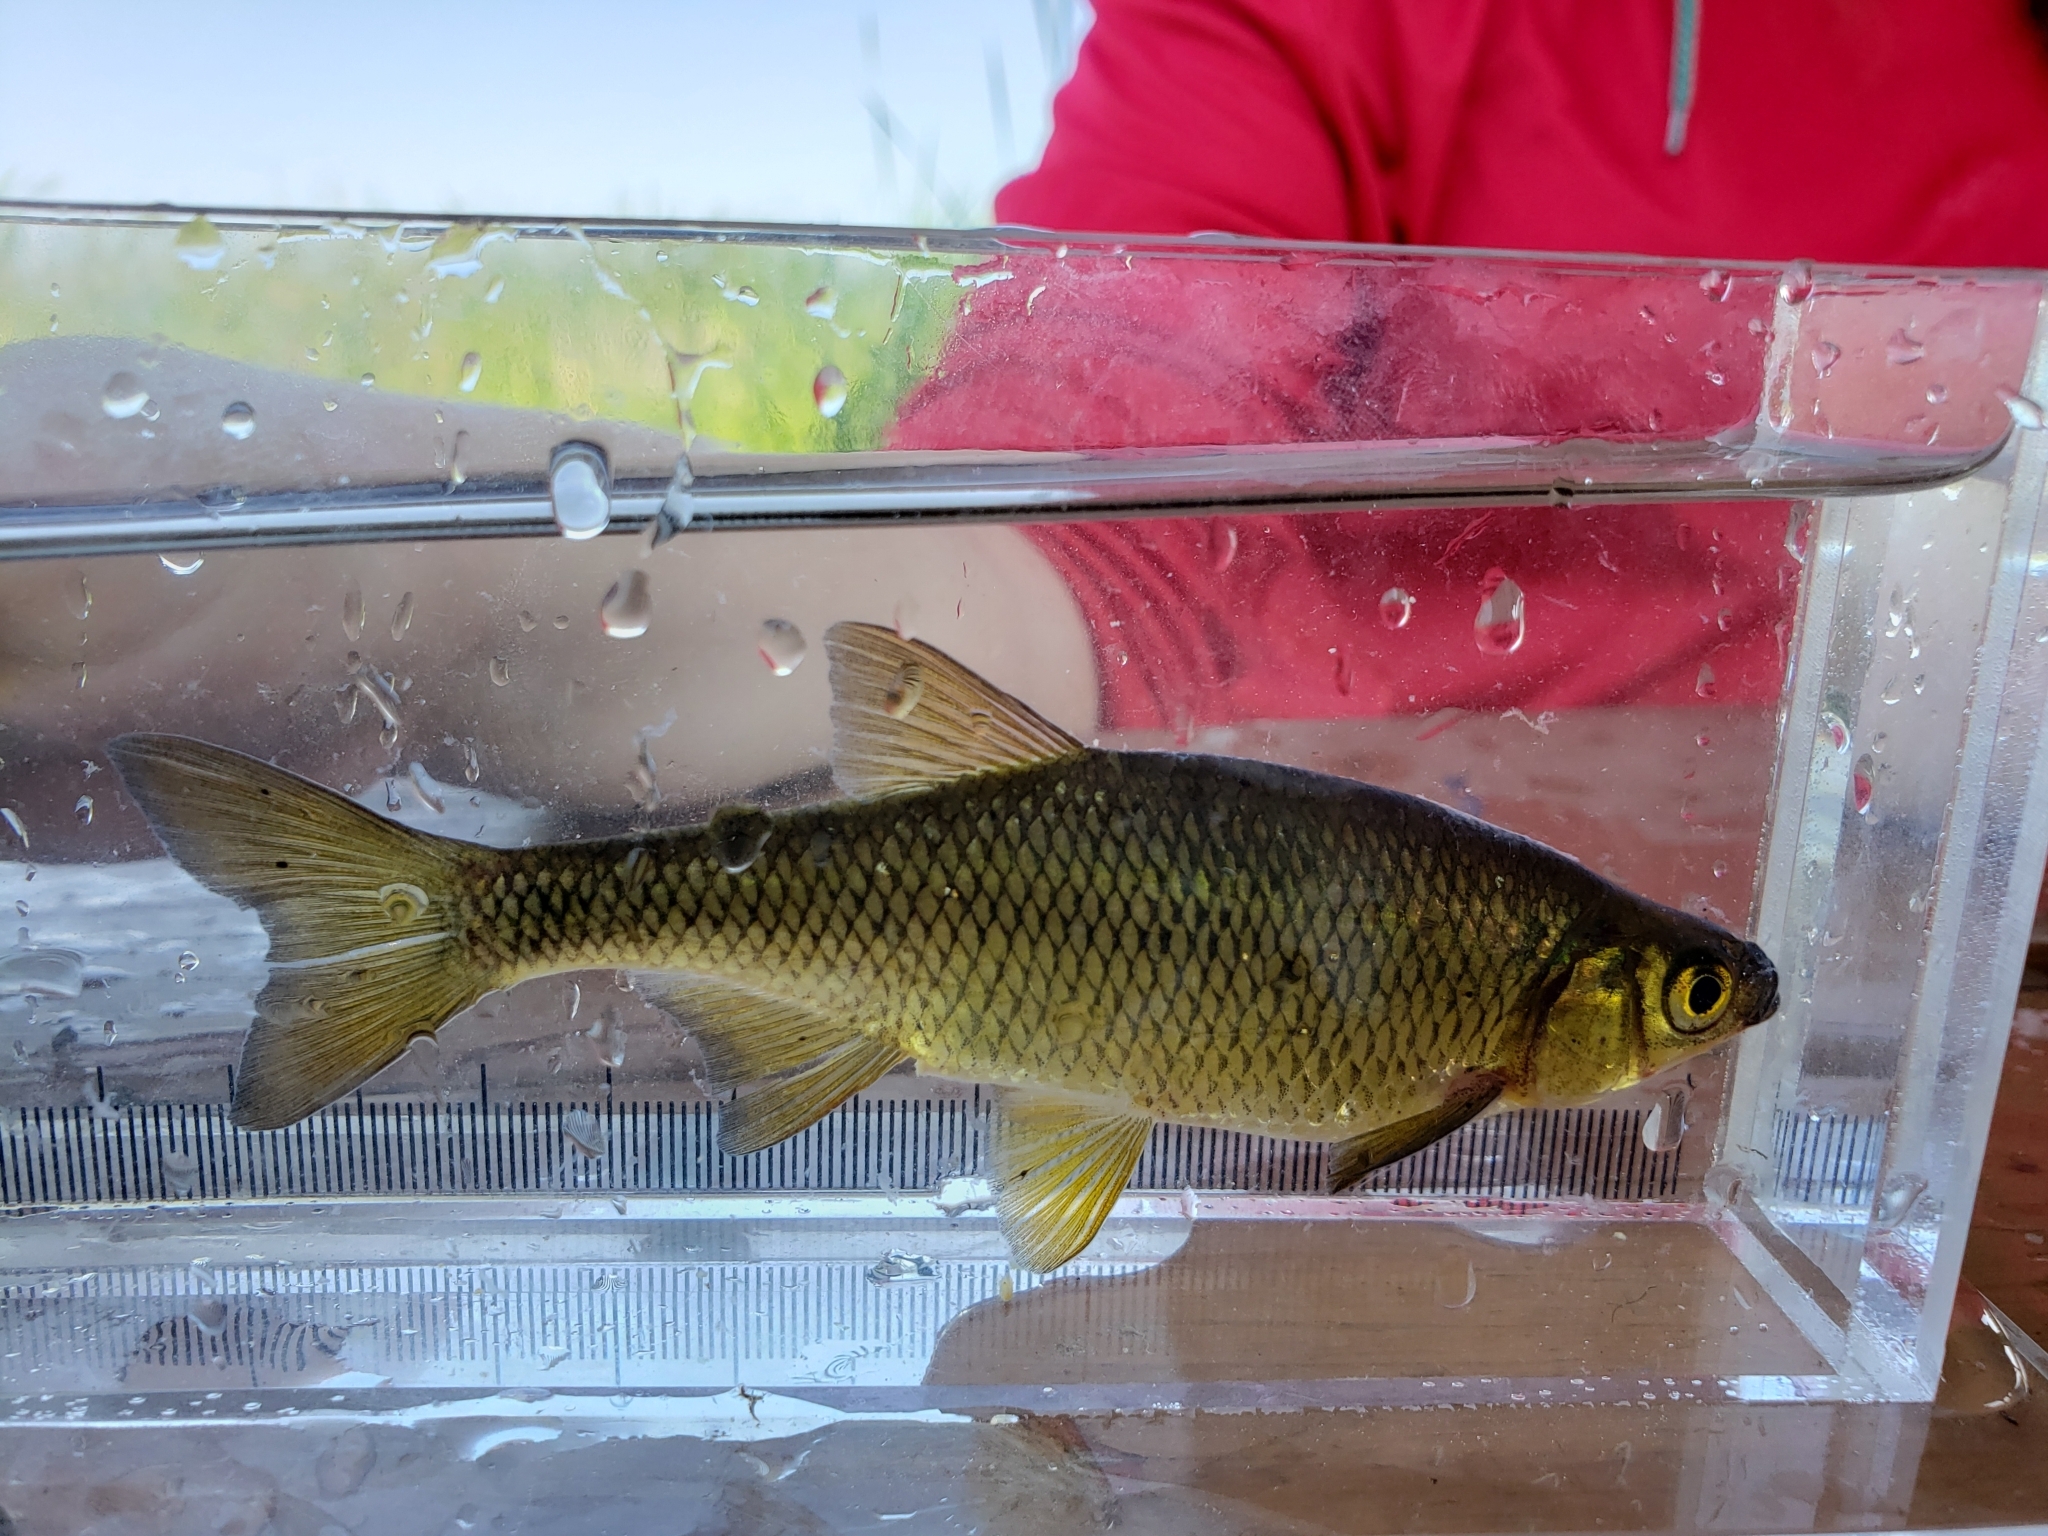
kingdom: Animalia
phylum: Chordata
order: Cypriniformes
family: Cyprinidae
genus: Notemigonus
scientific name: Notemigonus crysoleucas
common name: Golden shiner
